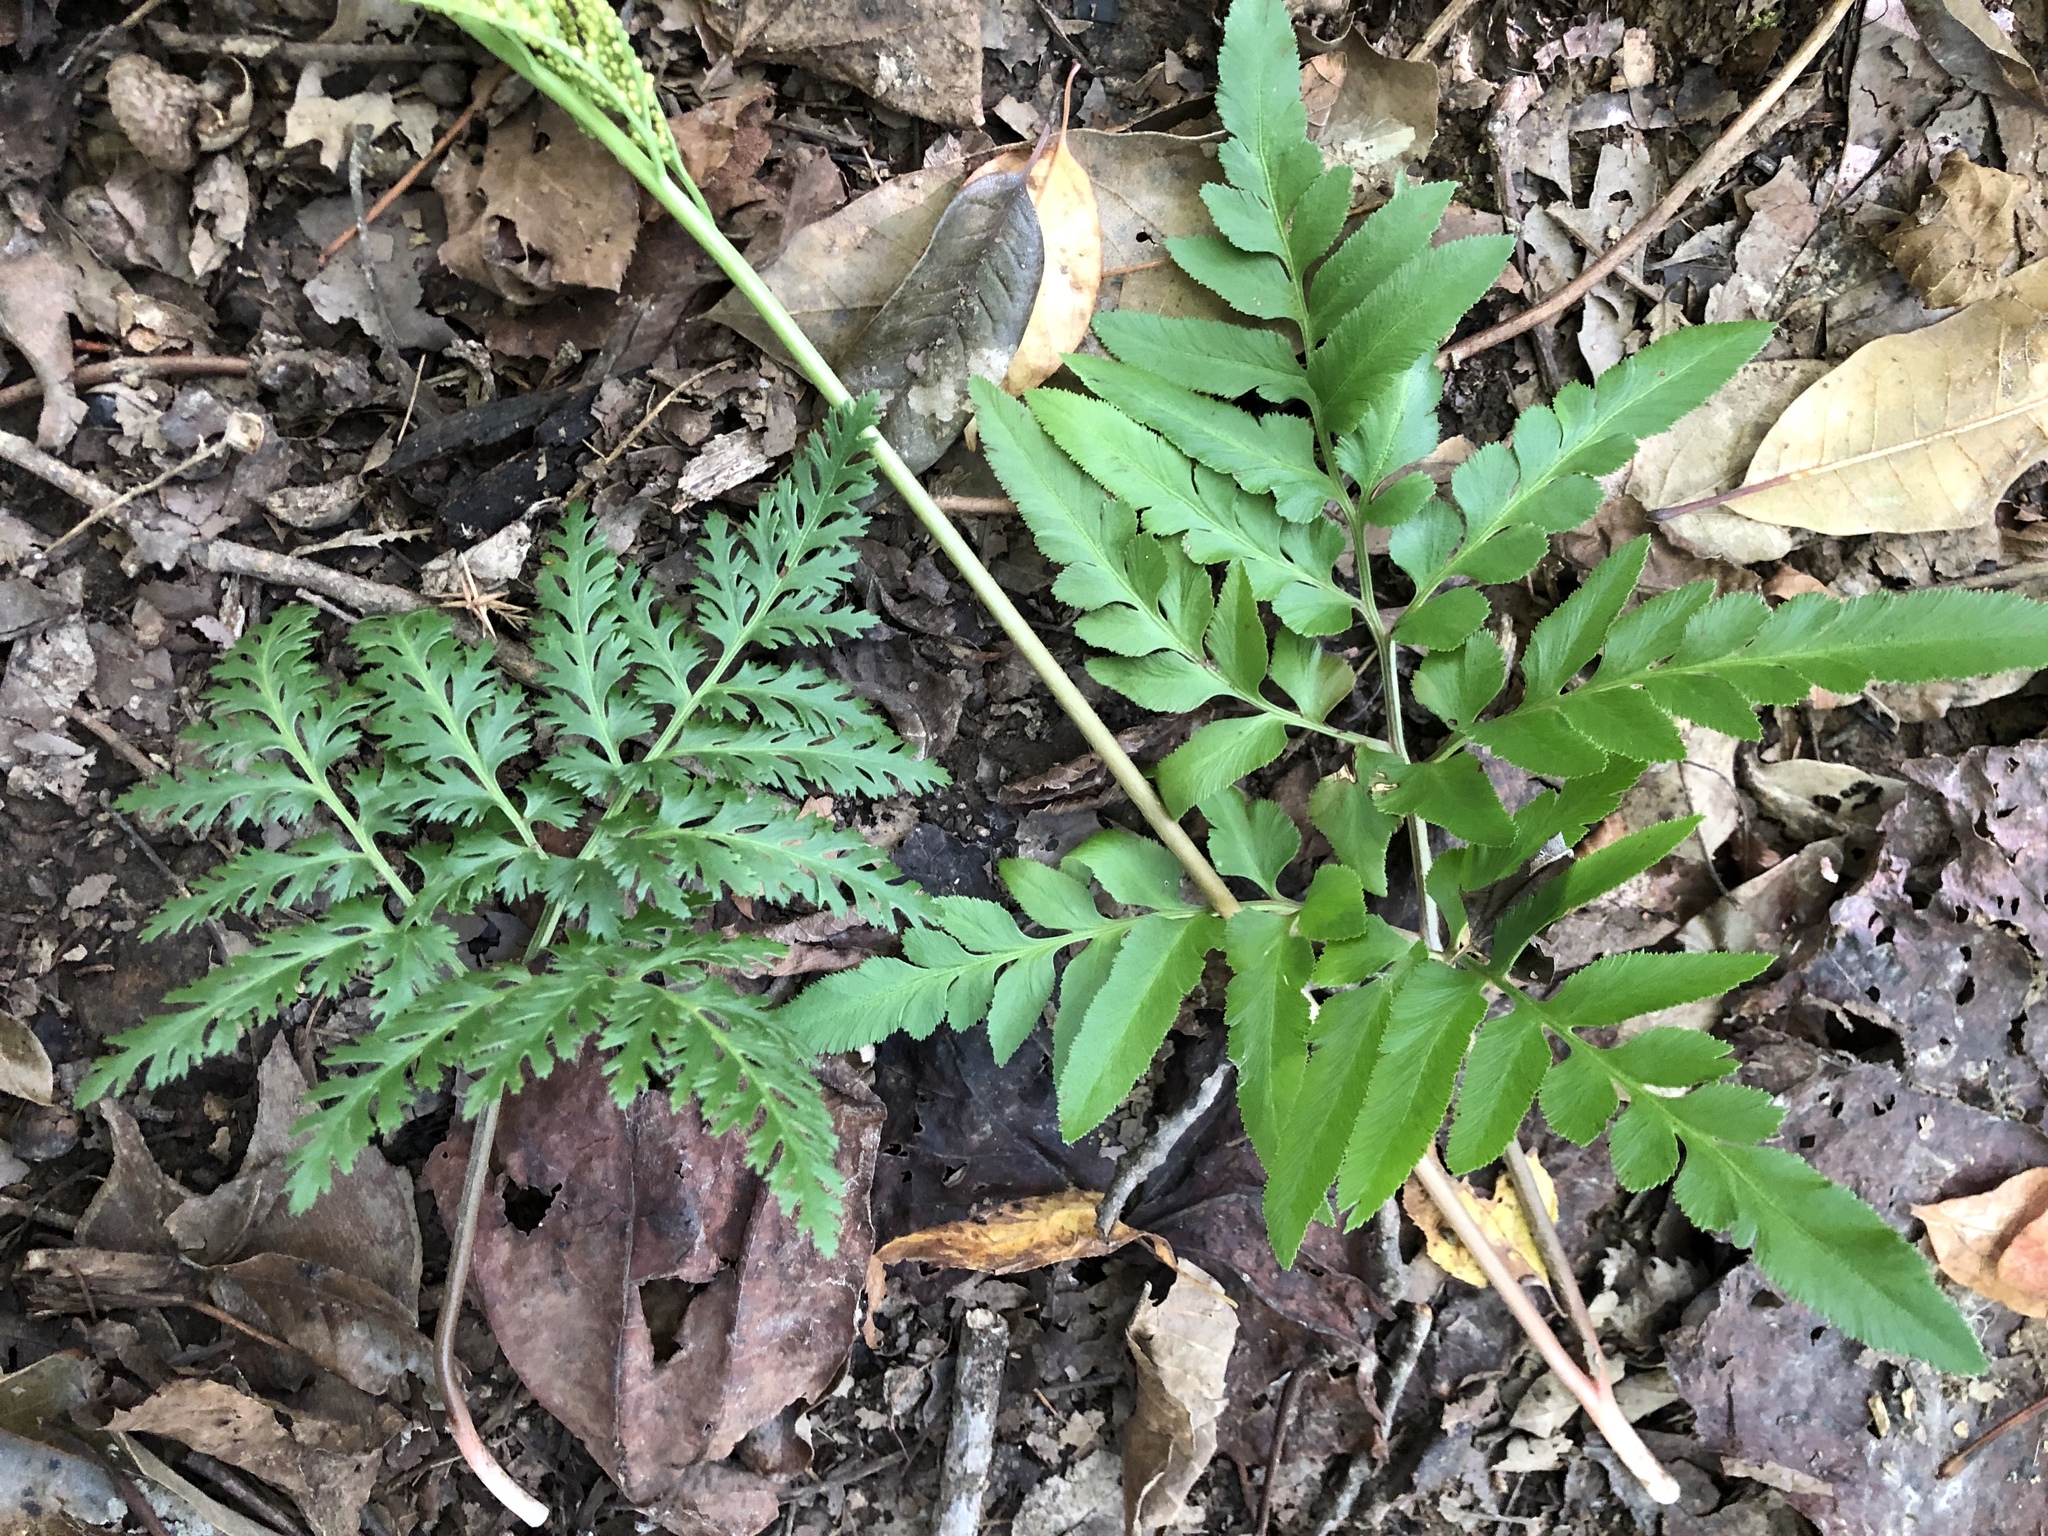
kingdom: Plantae
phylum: Tracheophyta
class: Polypodiopsida
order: Ophioglossales
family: Ophioglossaceae
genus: Sceptridium
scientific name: Sceptridium dissectum
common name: Cut-leaved grapefern
